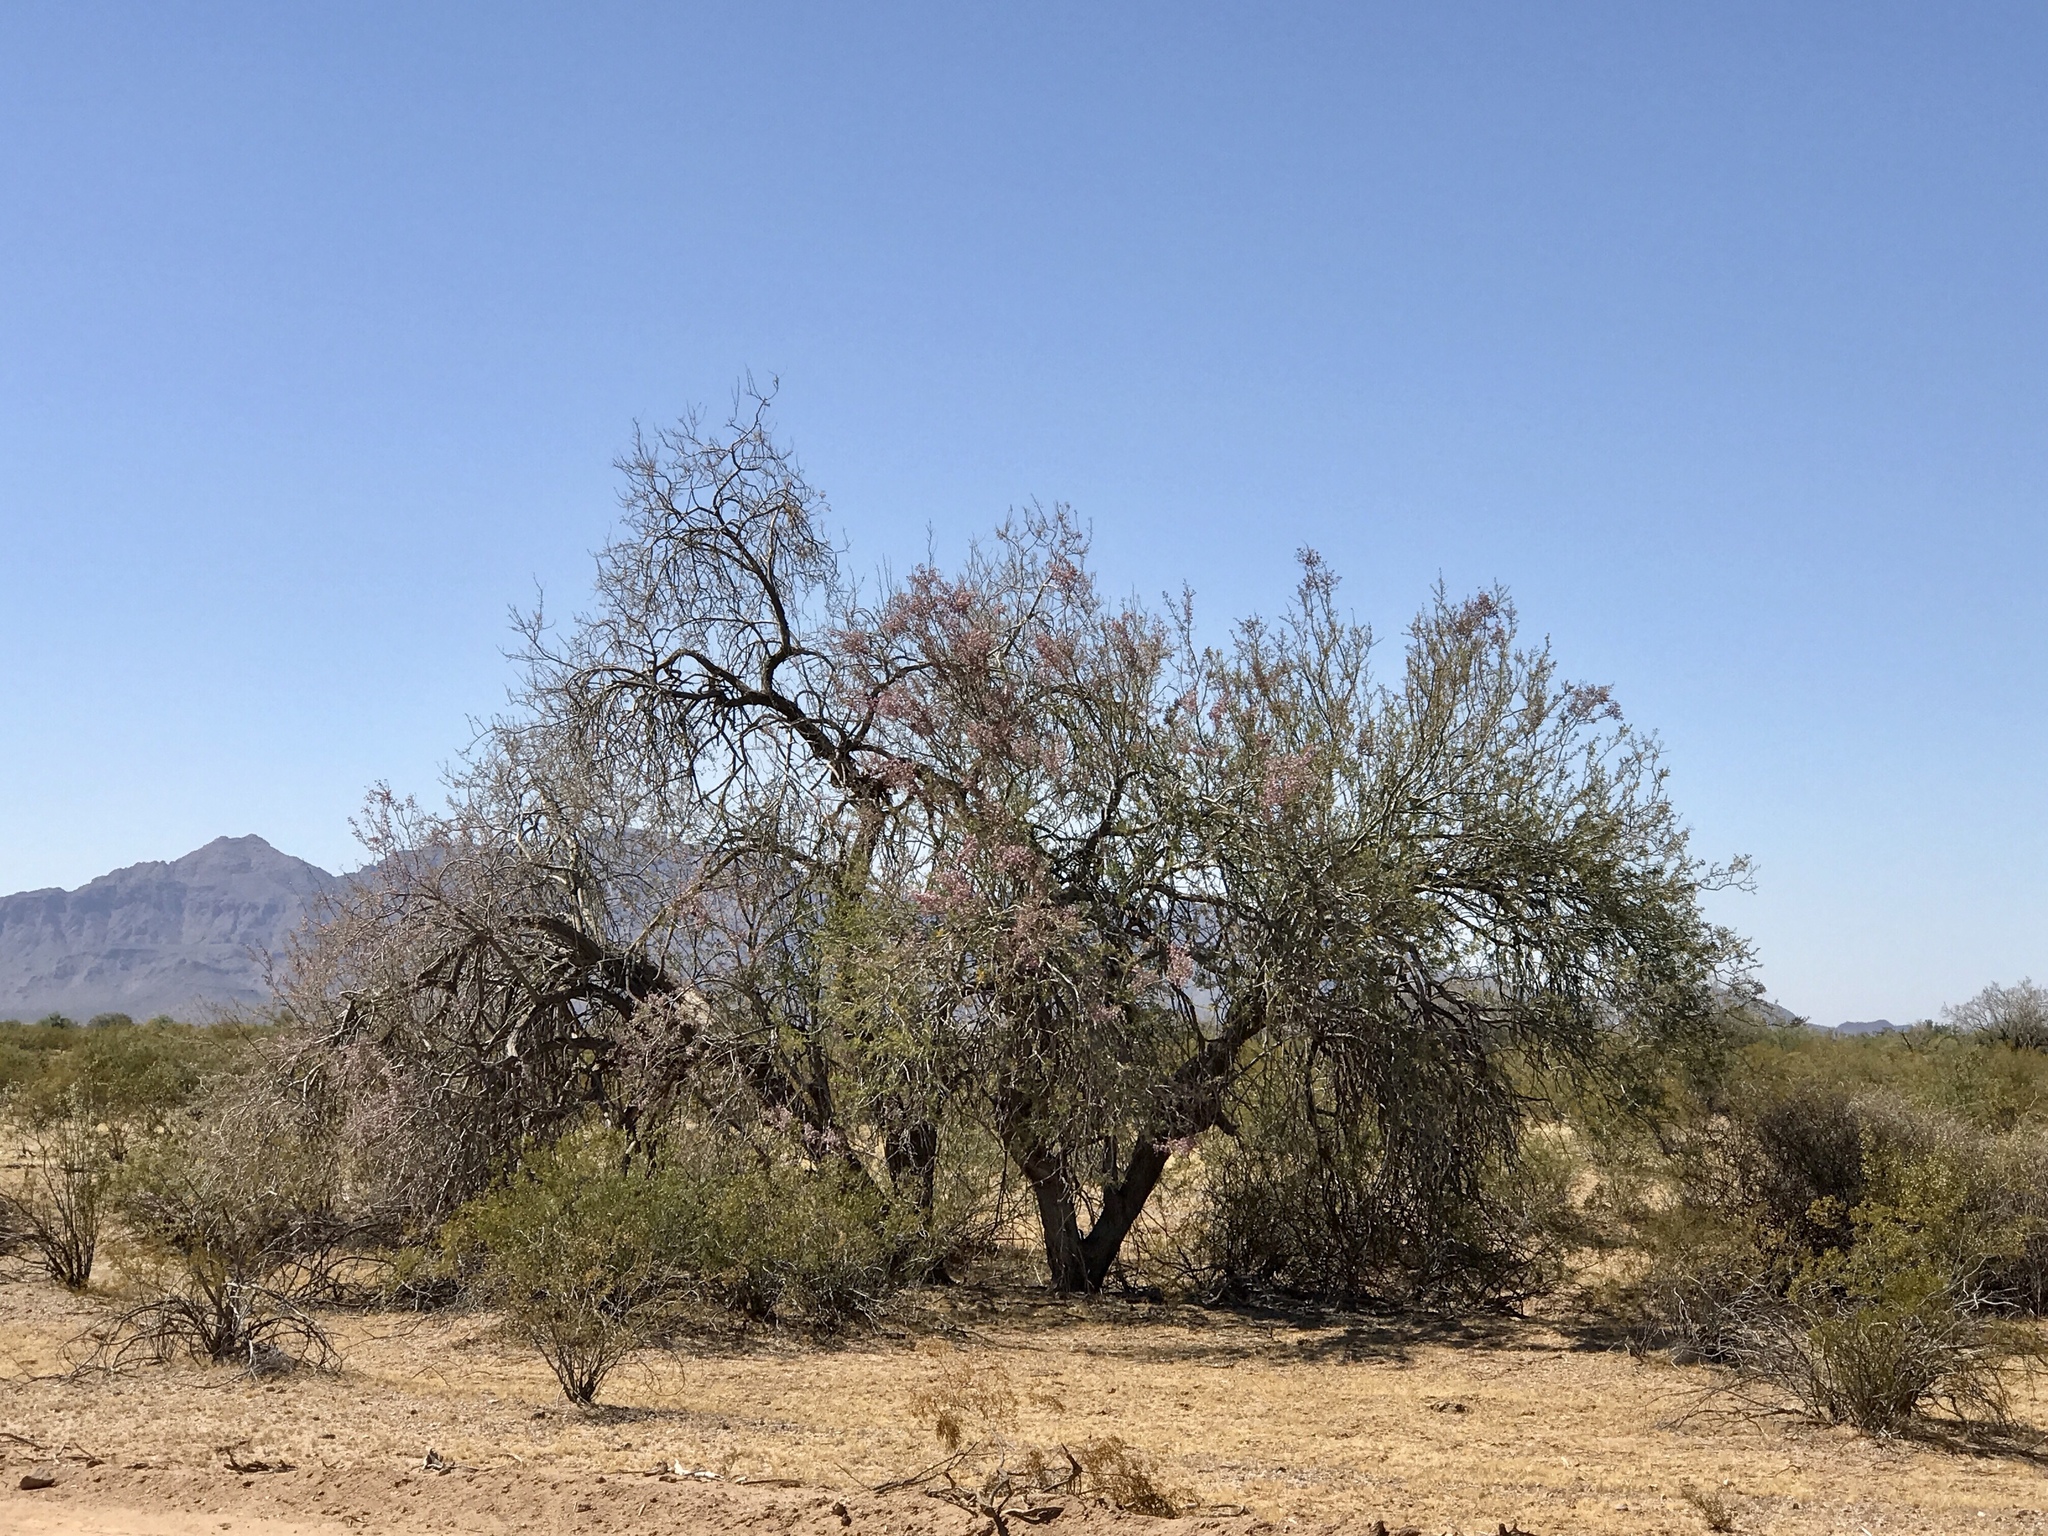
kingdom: Plantae
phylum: Tracheophyta
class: Magnoliopsida
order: Fabales
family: Fabaceae
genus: Olneya
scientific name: Olneya tesota
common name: Desert ironwood
